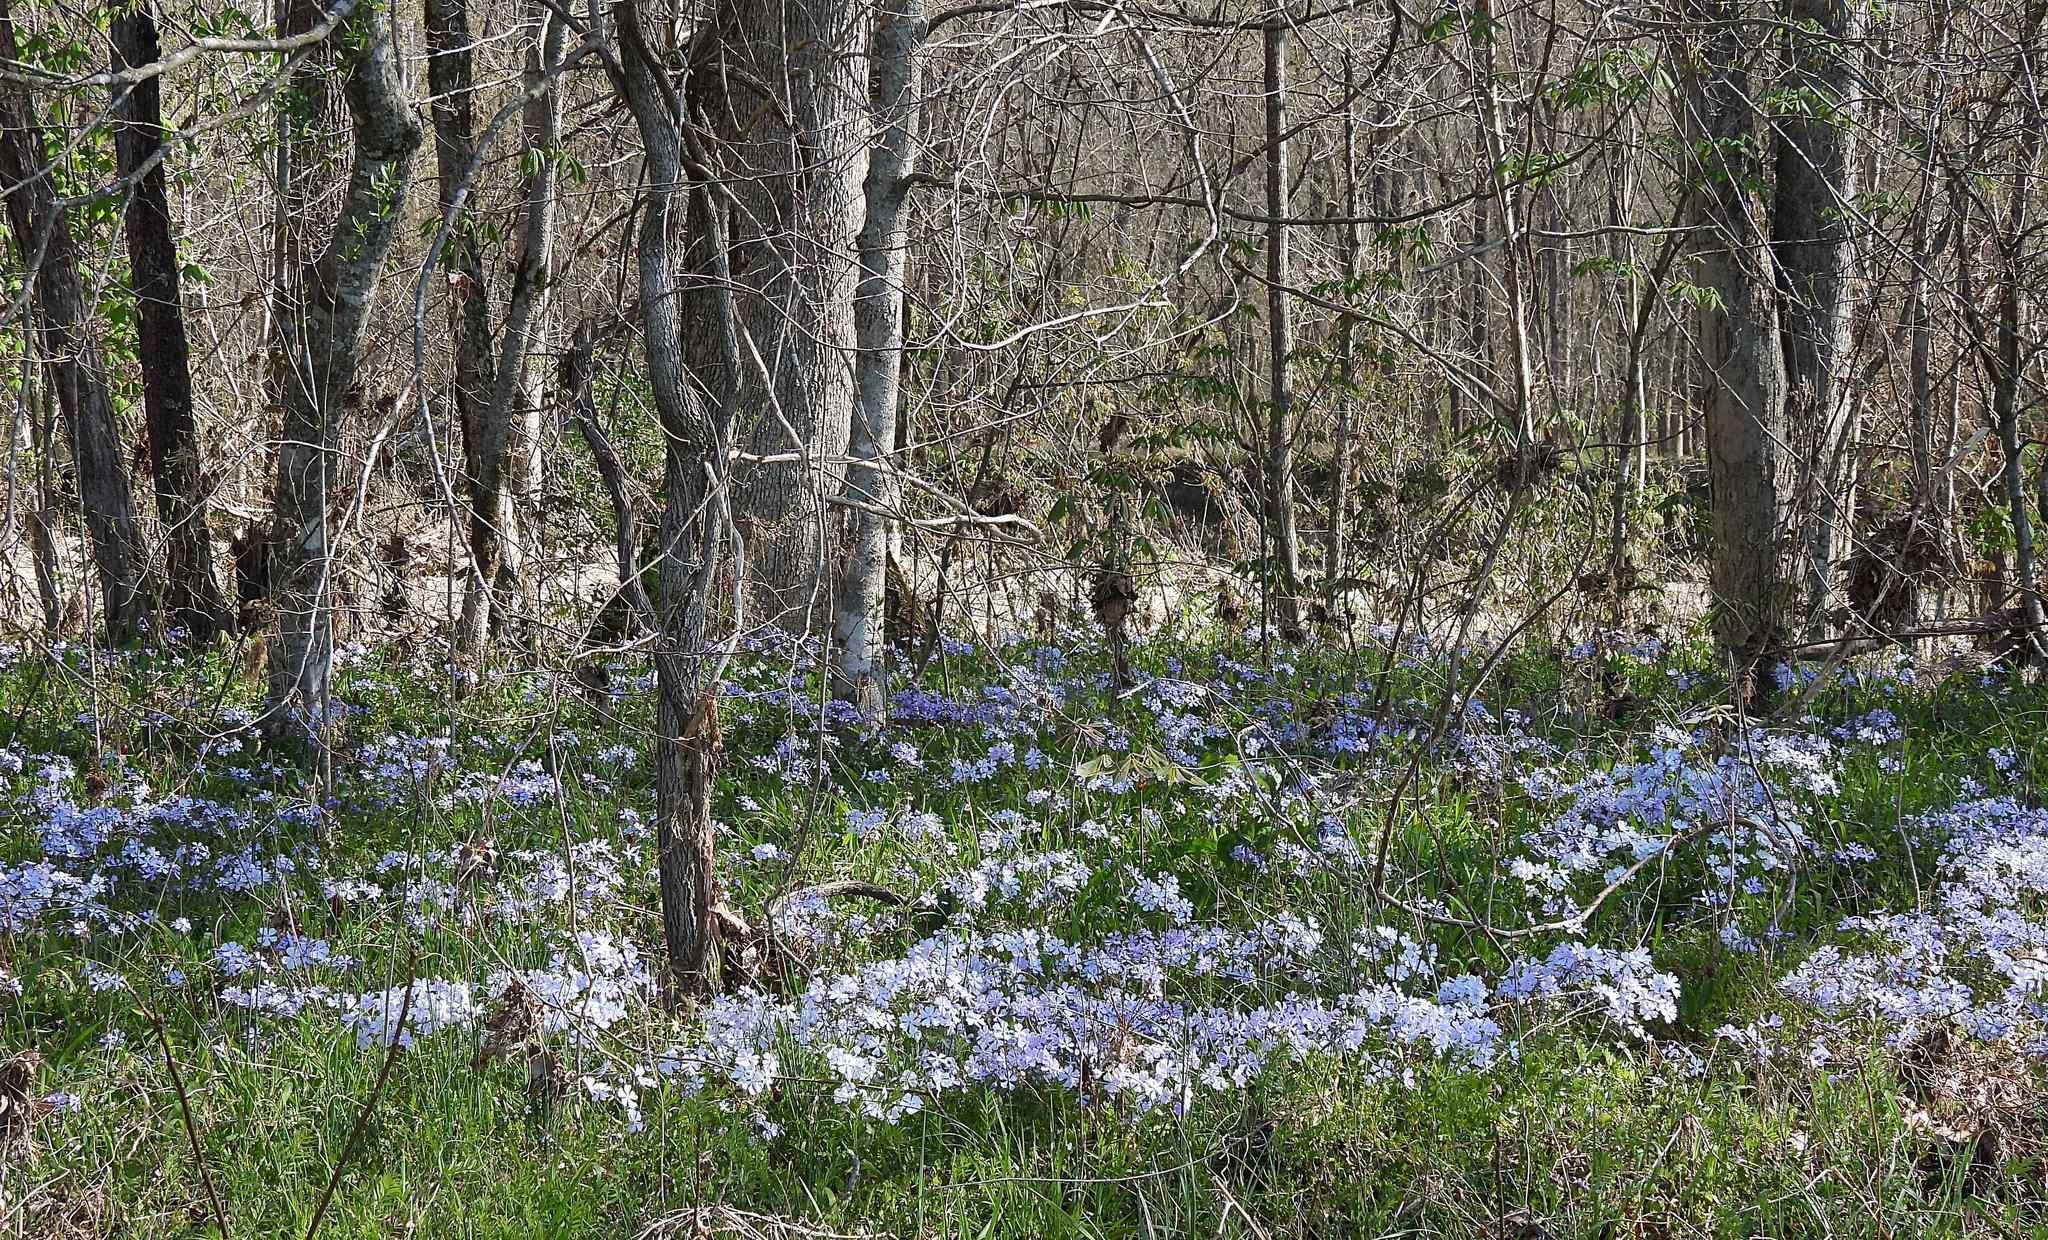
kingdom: Plantae
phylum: Tracheophyta
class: Magnoliopsida
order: Ericales
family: Polemoniaceae
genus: Phlox
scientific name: Phlox divaricata
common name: Blue phlox
